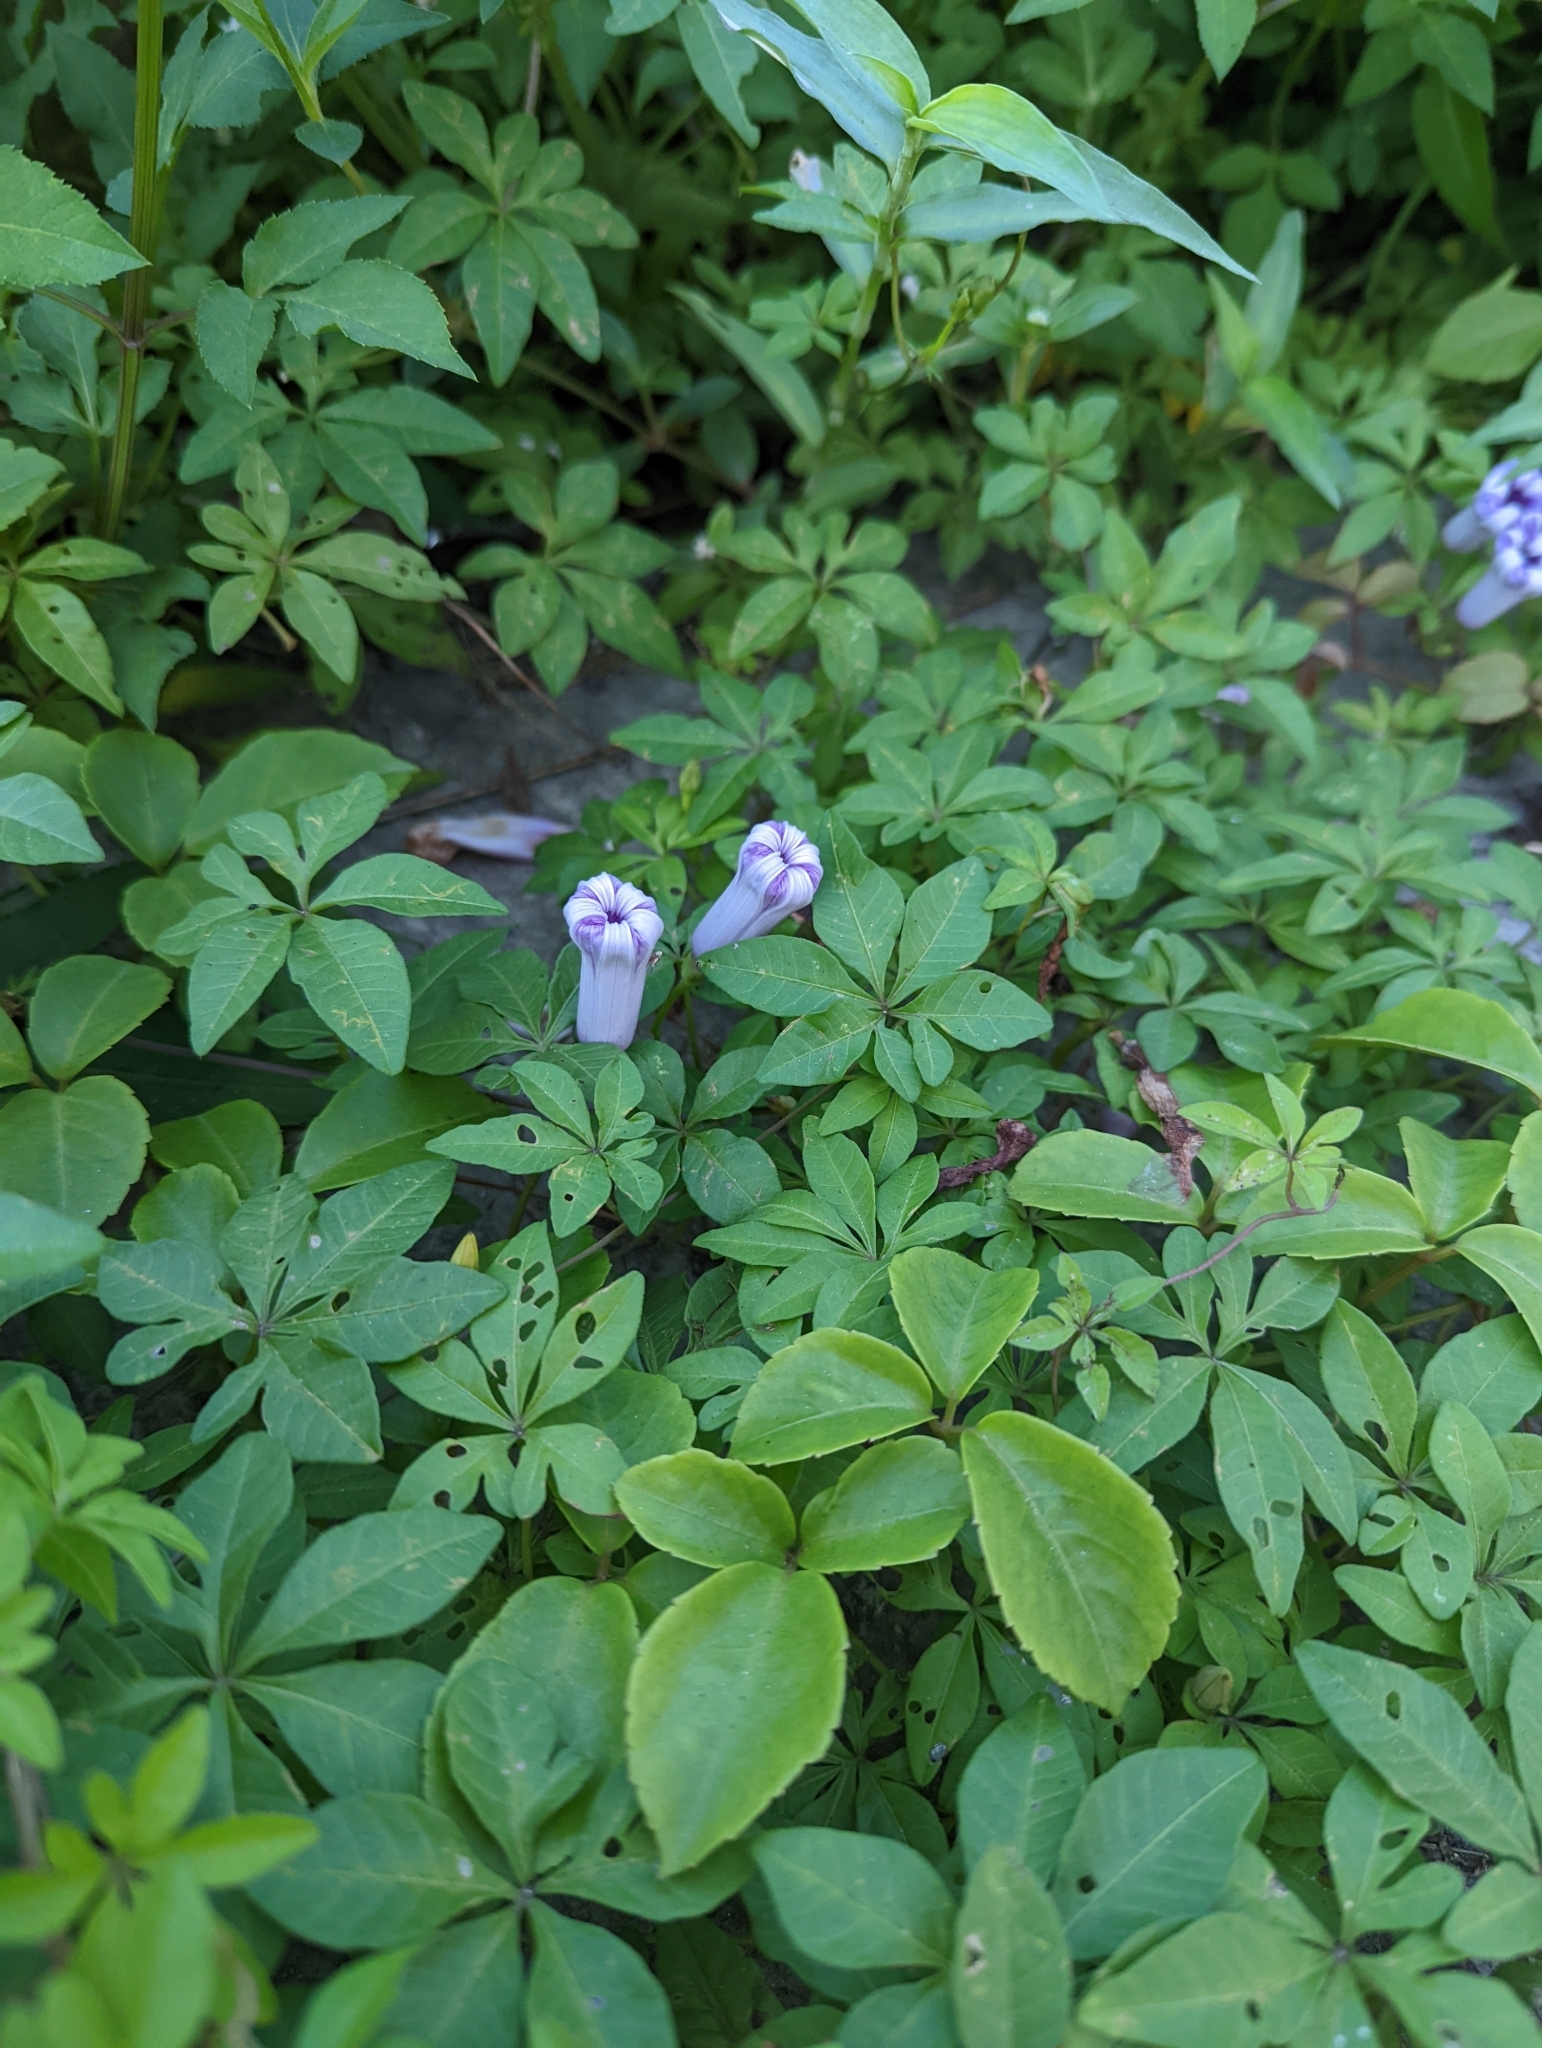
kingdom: Plantae
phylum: Tracheophyta
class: Magnoliopsida
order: Solanales
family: Convolvulaceae
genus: Ipomoea
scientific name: Ipomoea cairica
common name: Mile a minute vine
